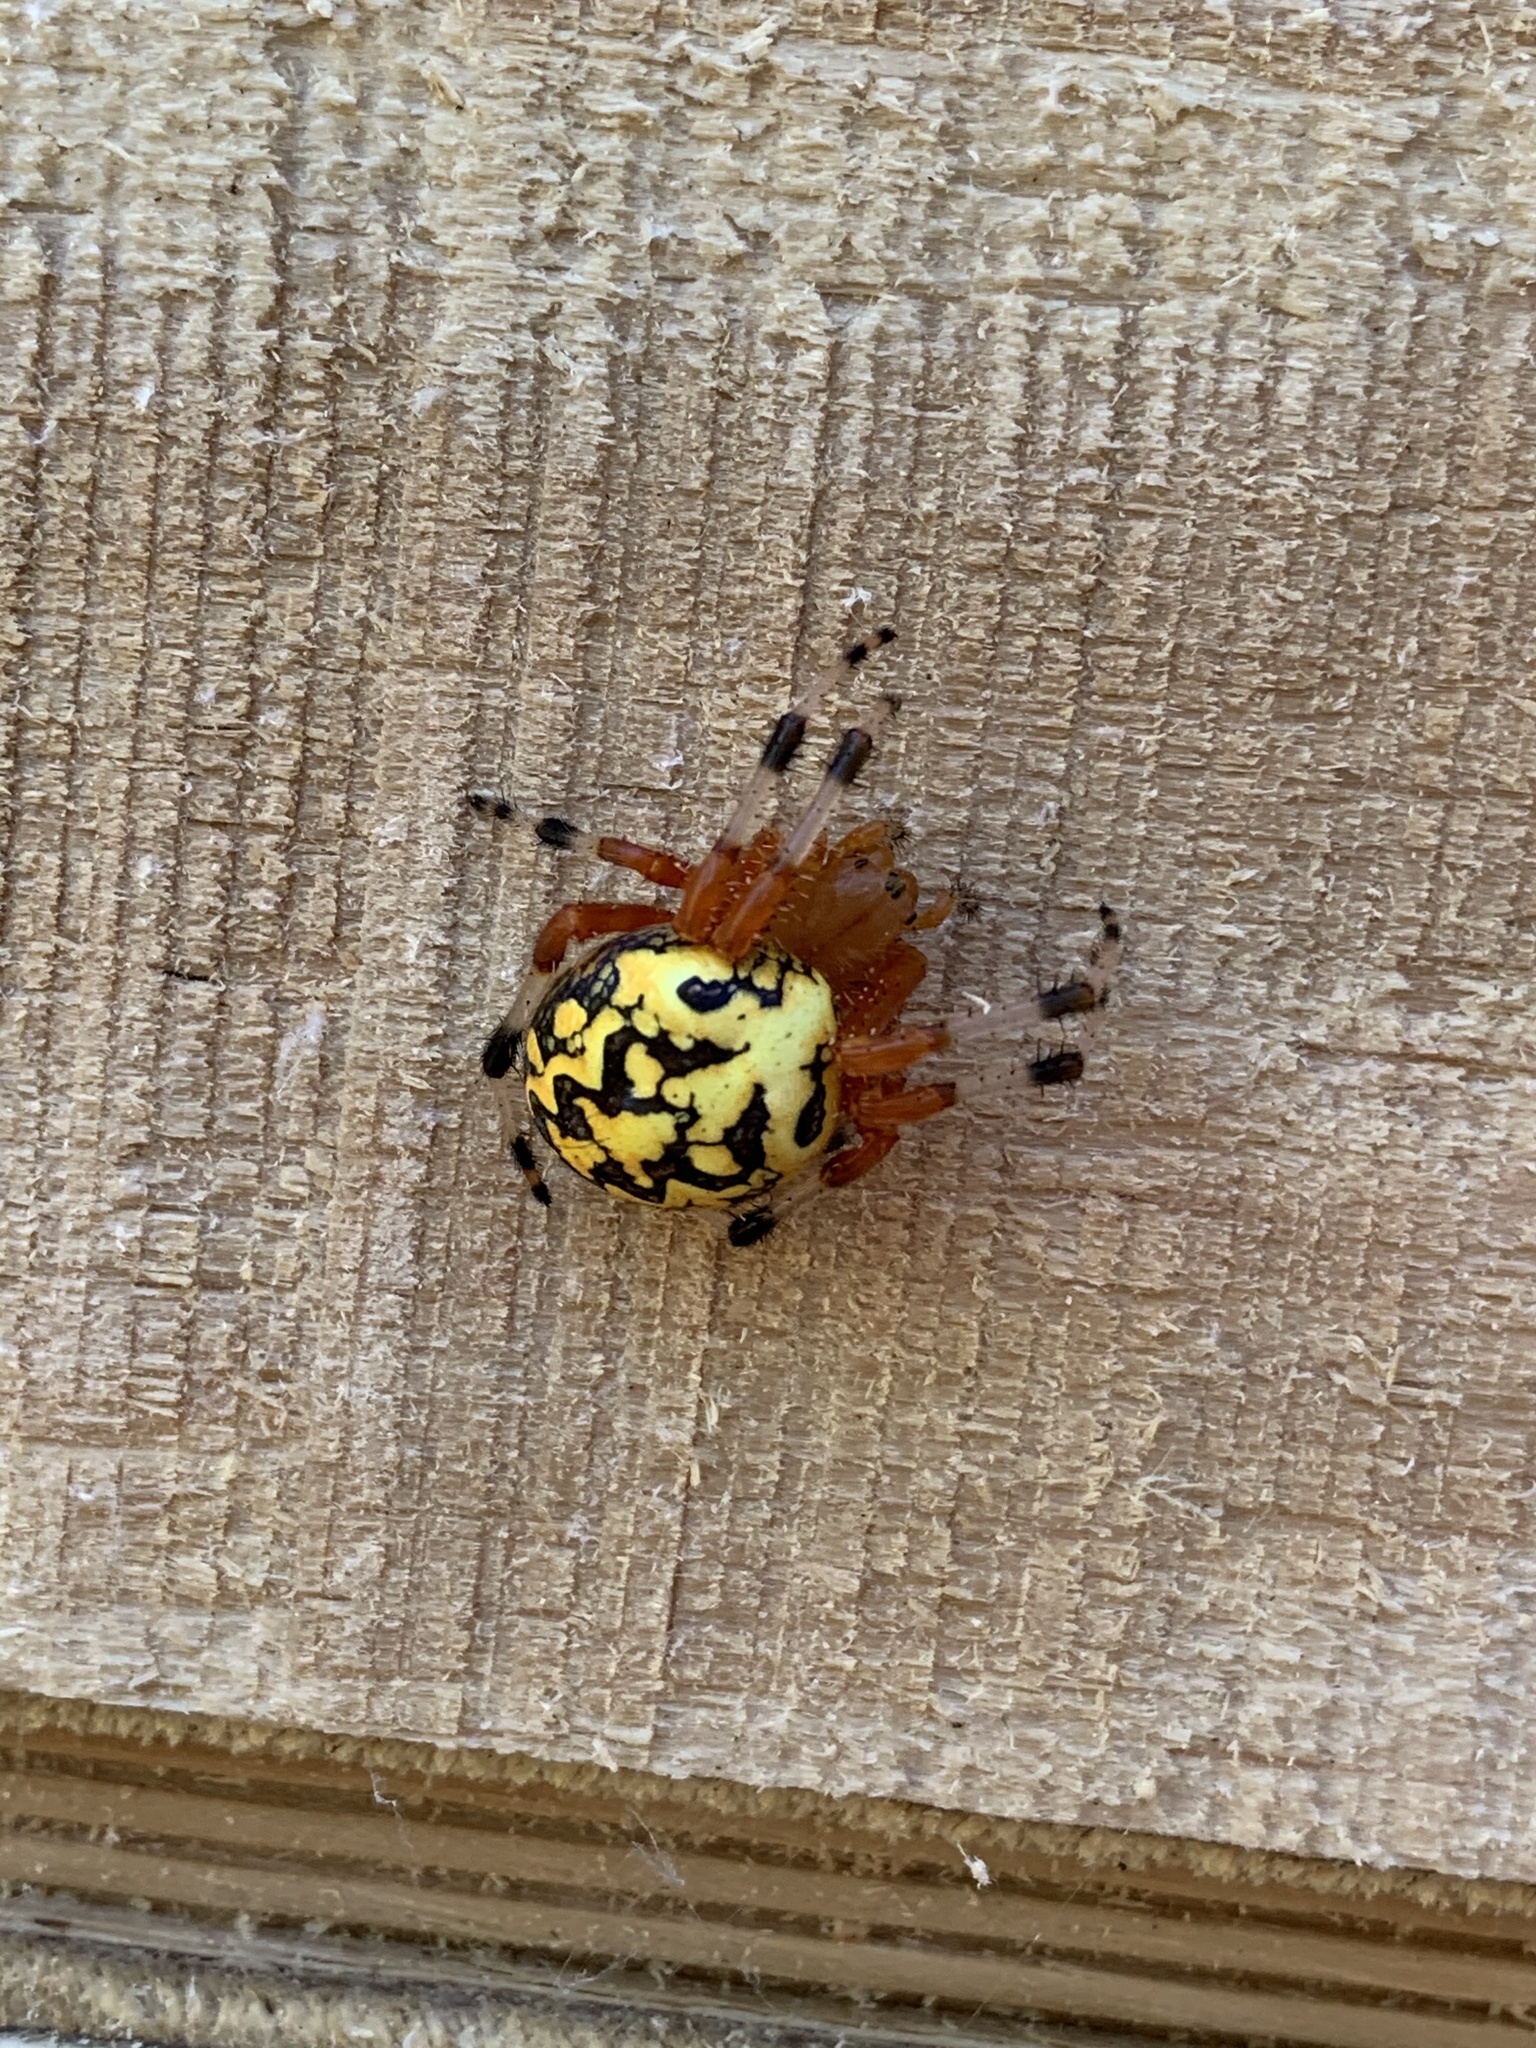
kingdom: Animalia
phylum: Arthropoda
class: Arachnida
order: Araneae
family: Araneidae
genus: Araneus
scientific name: Araneus marmoreus
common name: Marbled orbweaver
